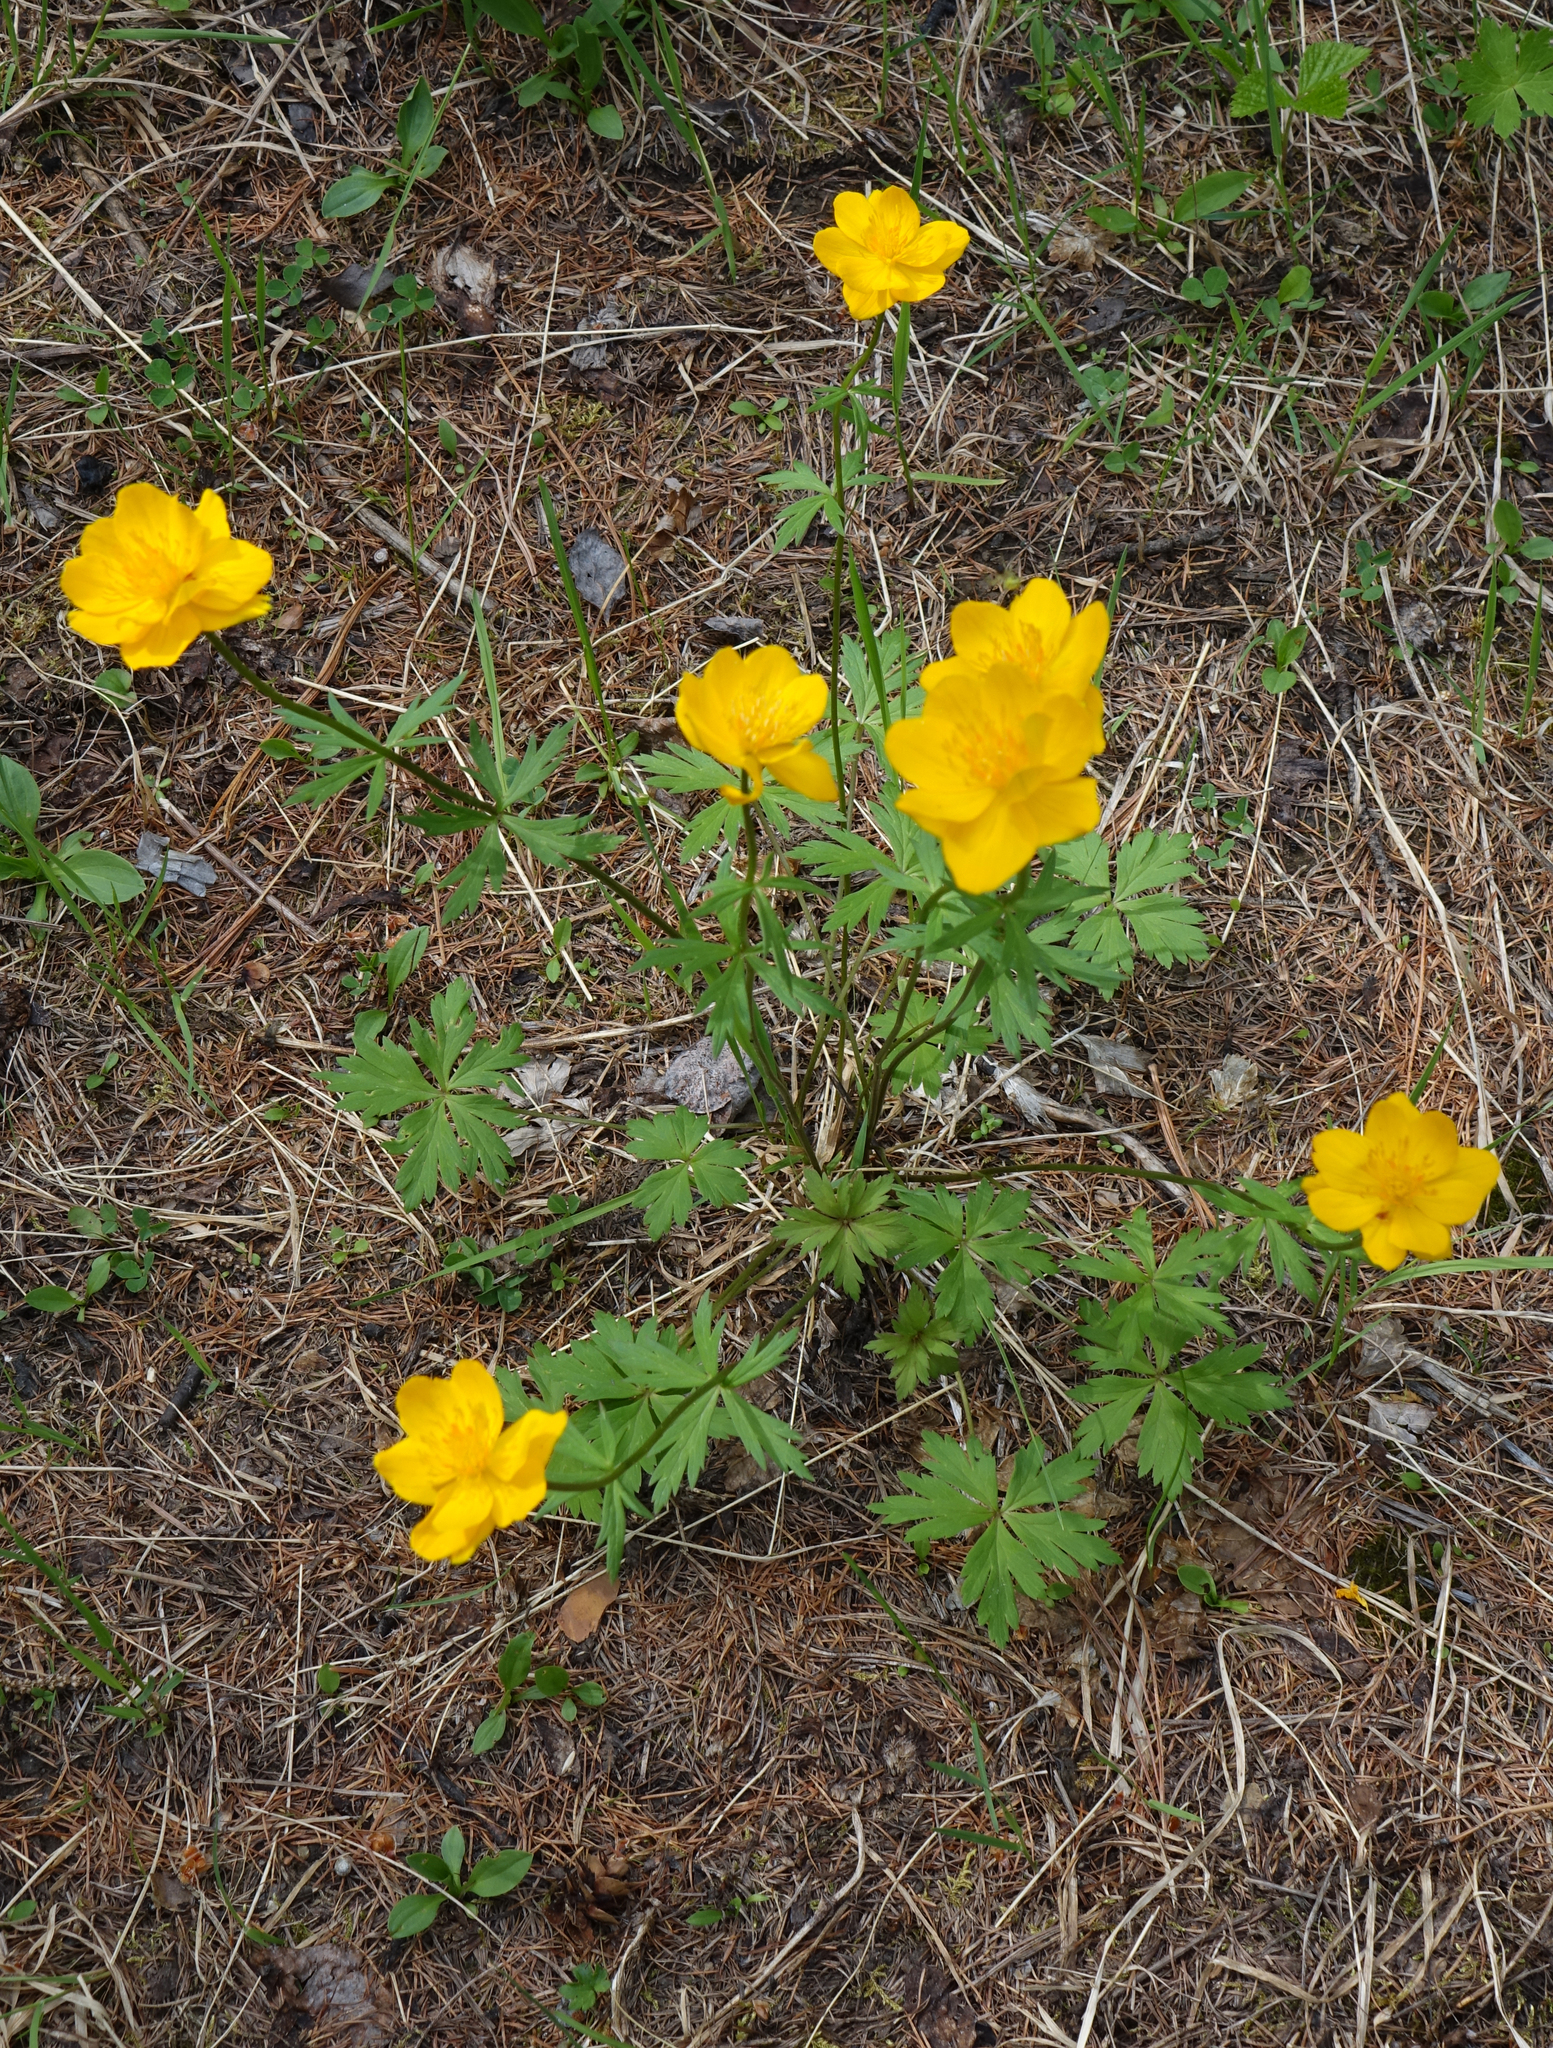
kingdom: Plantae
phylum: Tracheophyta
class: Magnoliopsida
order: Ranunculales
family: Ranunculaceae
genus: Trollius
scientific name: Trollius membranostylis
